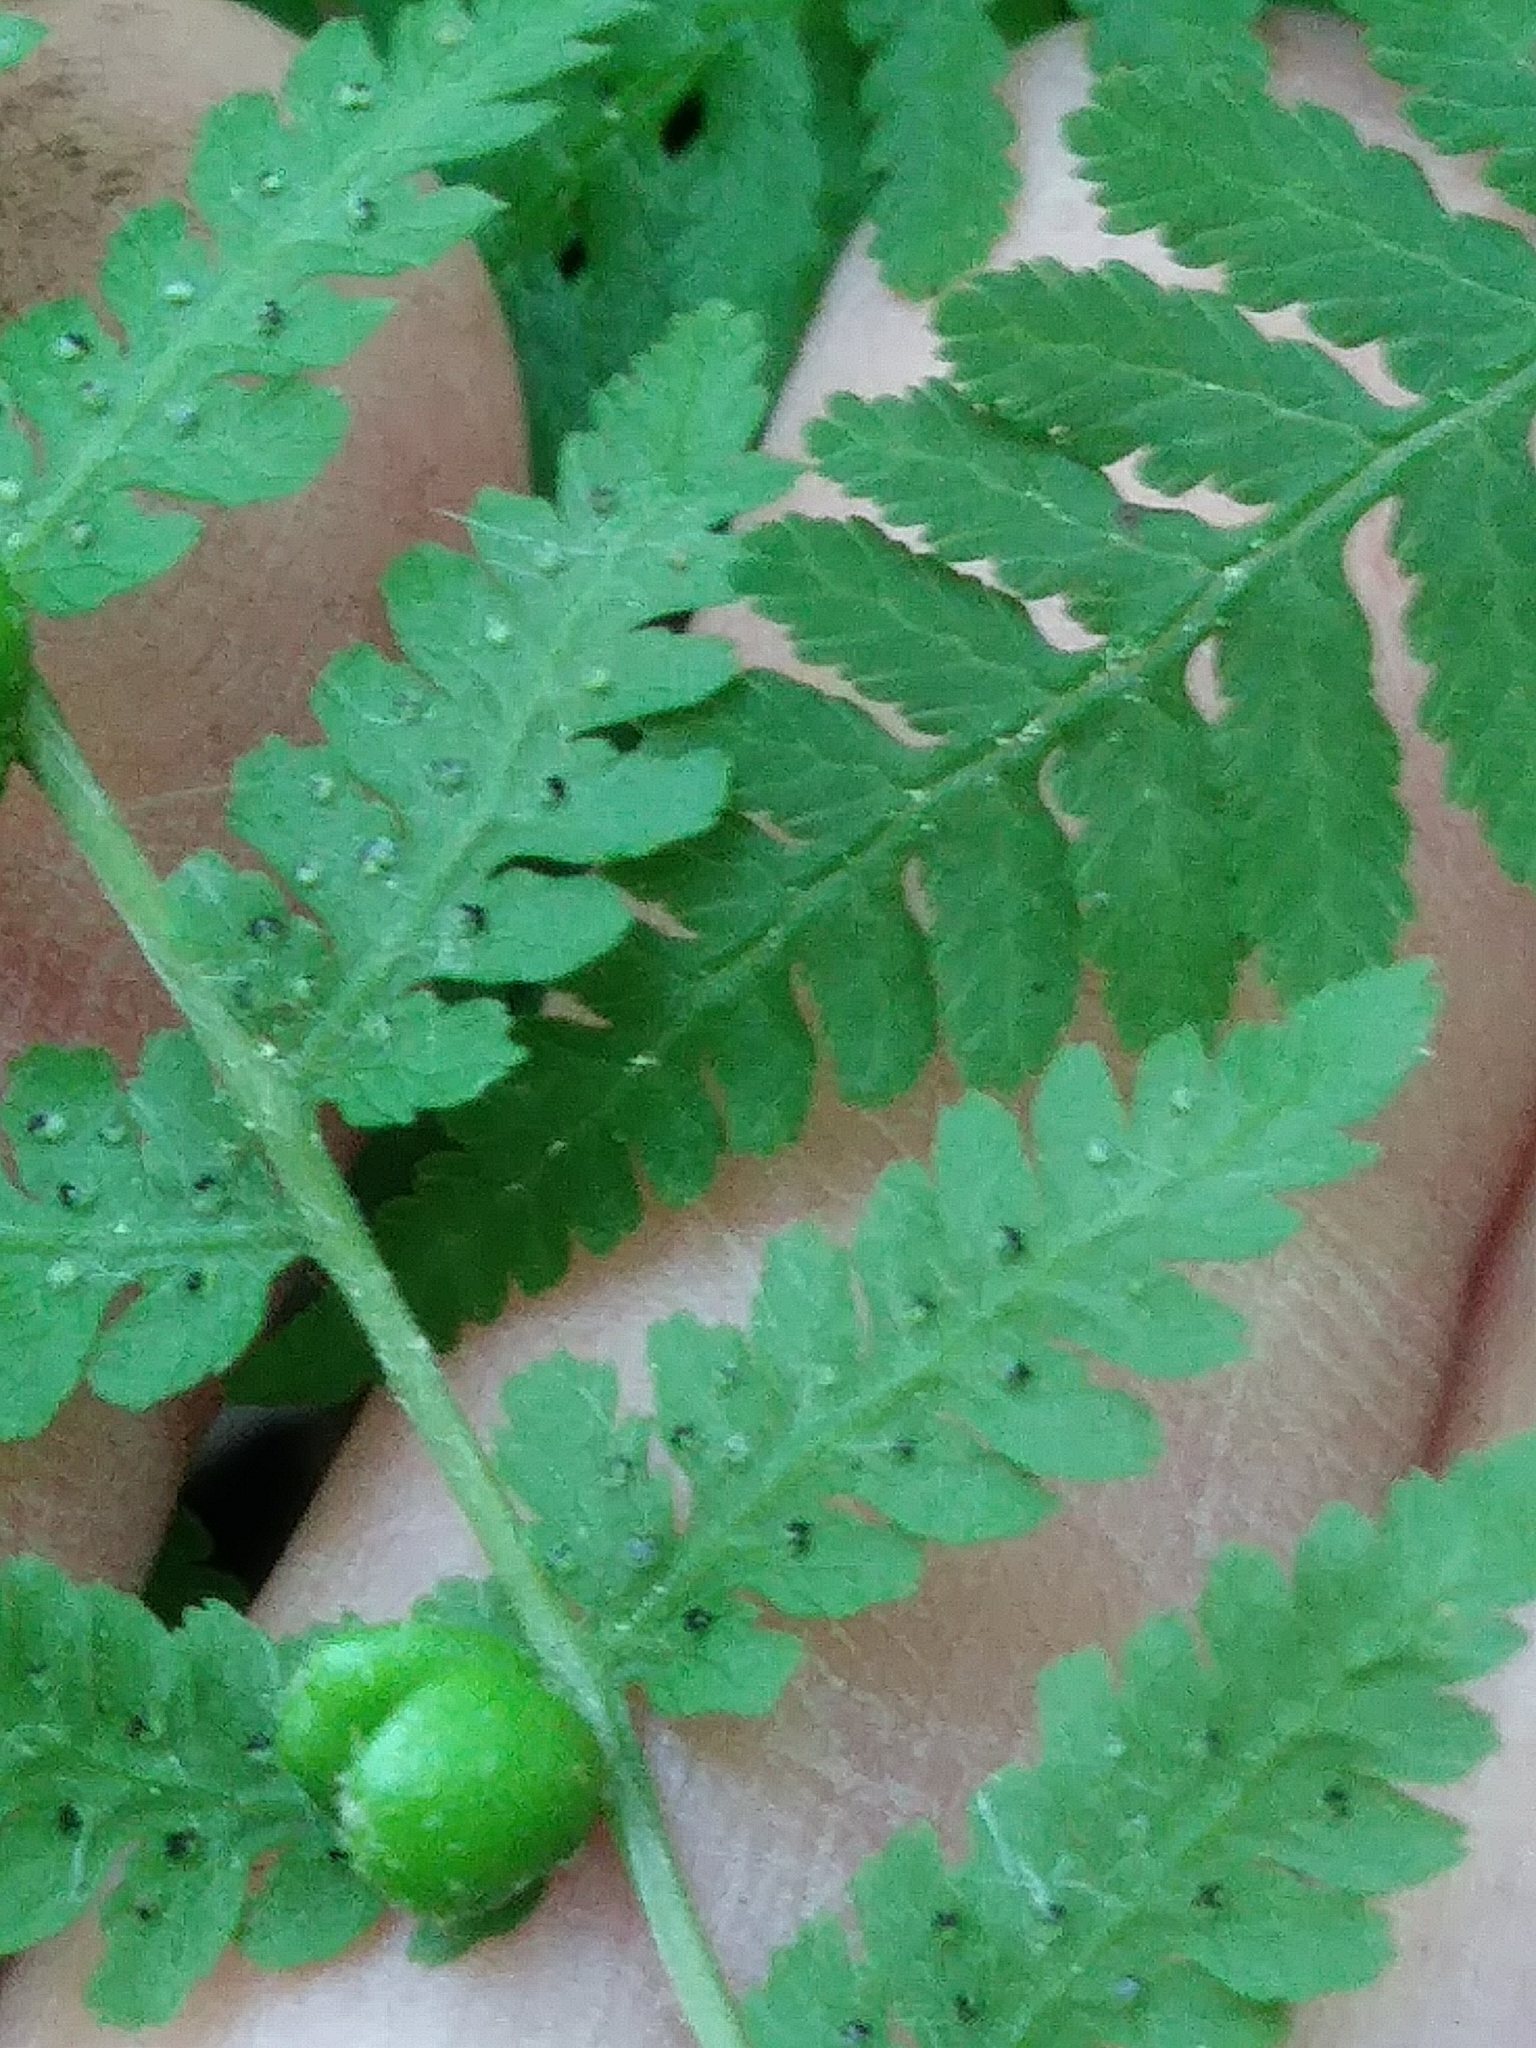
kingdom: Plantae
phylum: Tracheophyta
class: Polypodiopsida
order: Polypodiales
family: Cystopteridaceae
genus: Cystopteris
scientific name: Cystopteris bulbifera
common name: Bulblet bladder fern
